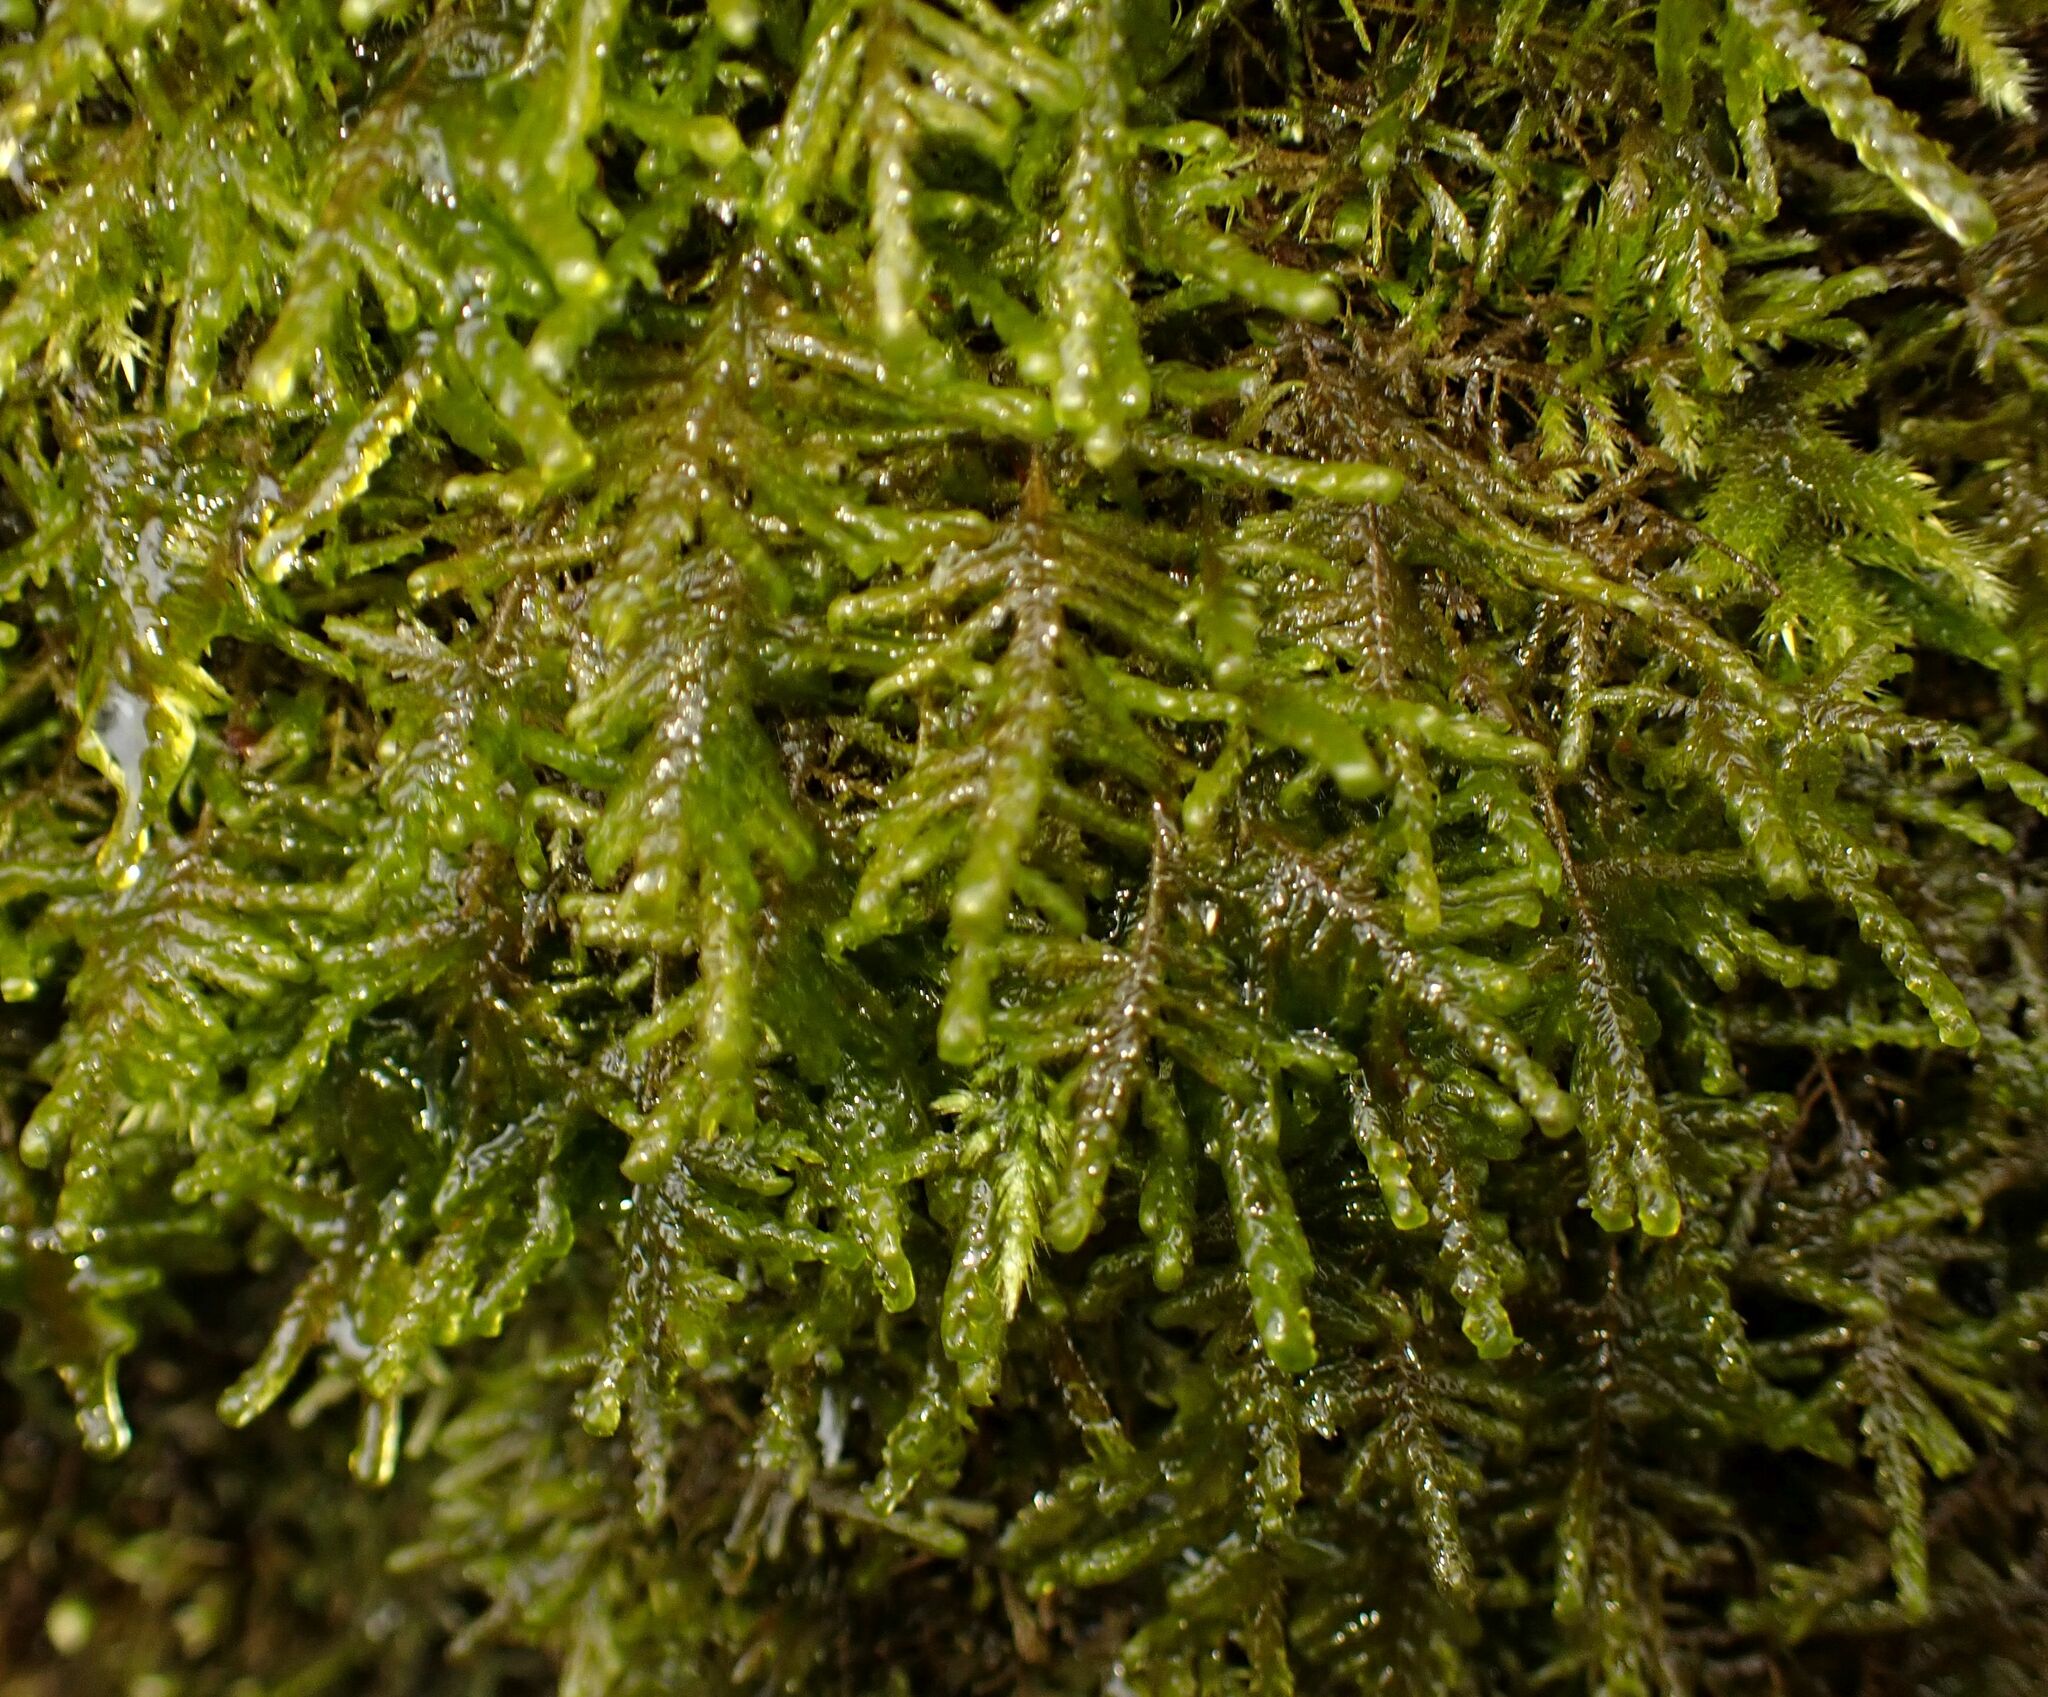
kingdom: Plantae
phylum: Bryophyta
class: Bryopsida
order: Hypnales
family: Neckeraceae
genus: Alleniella
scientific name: Alleniella complanata
